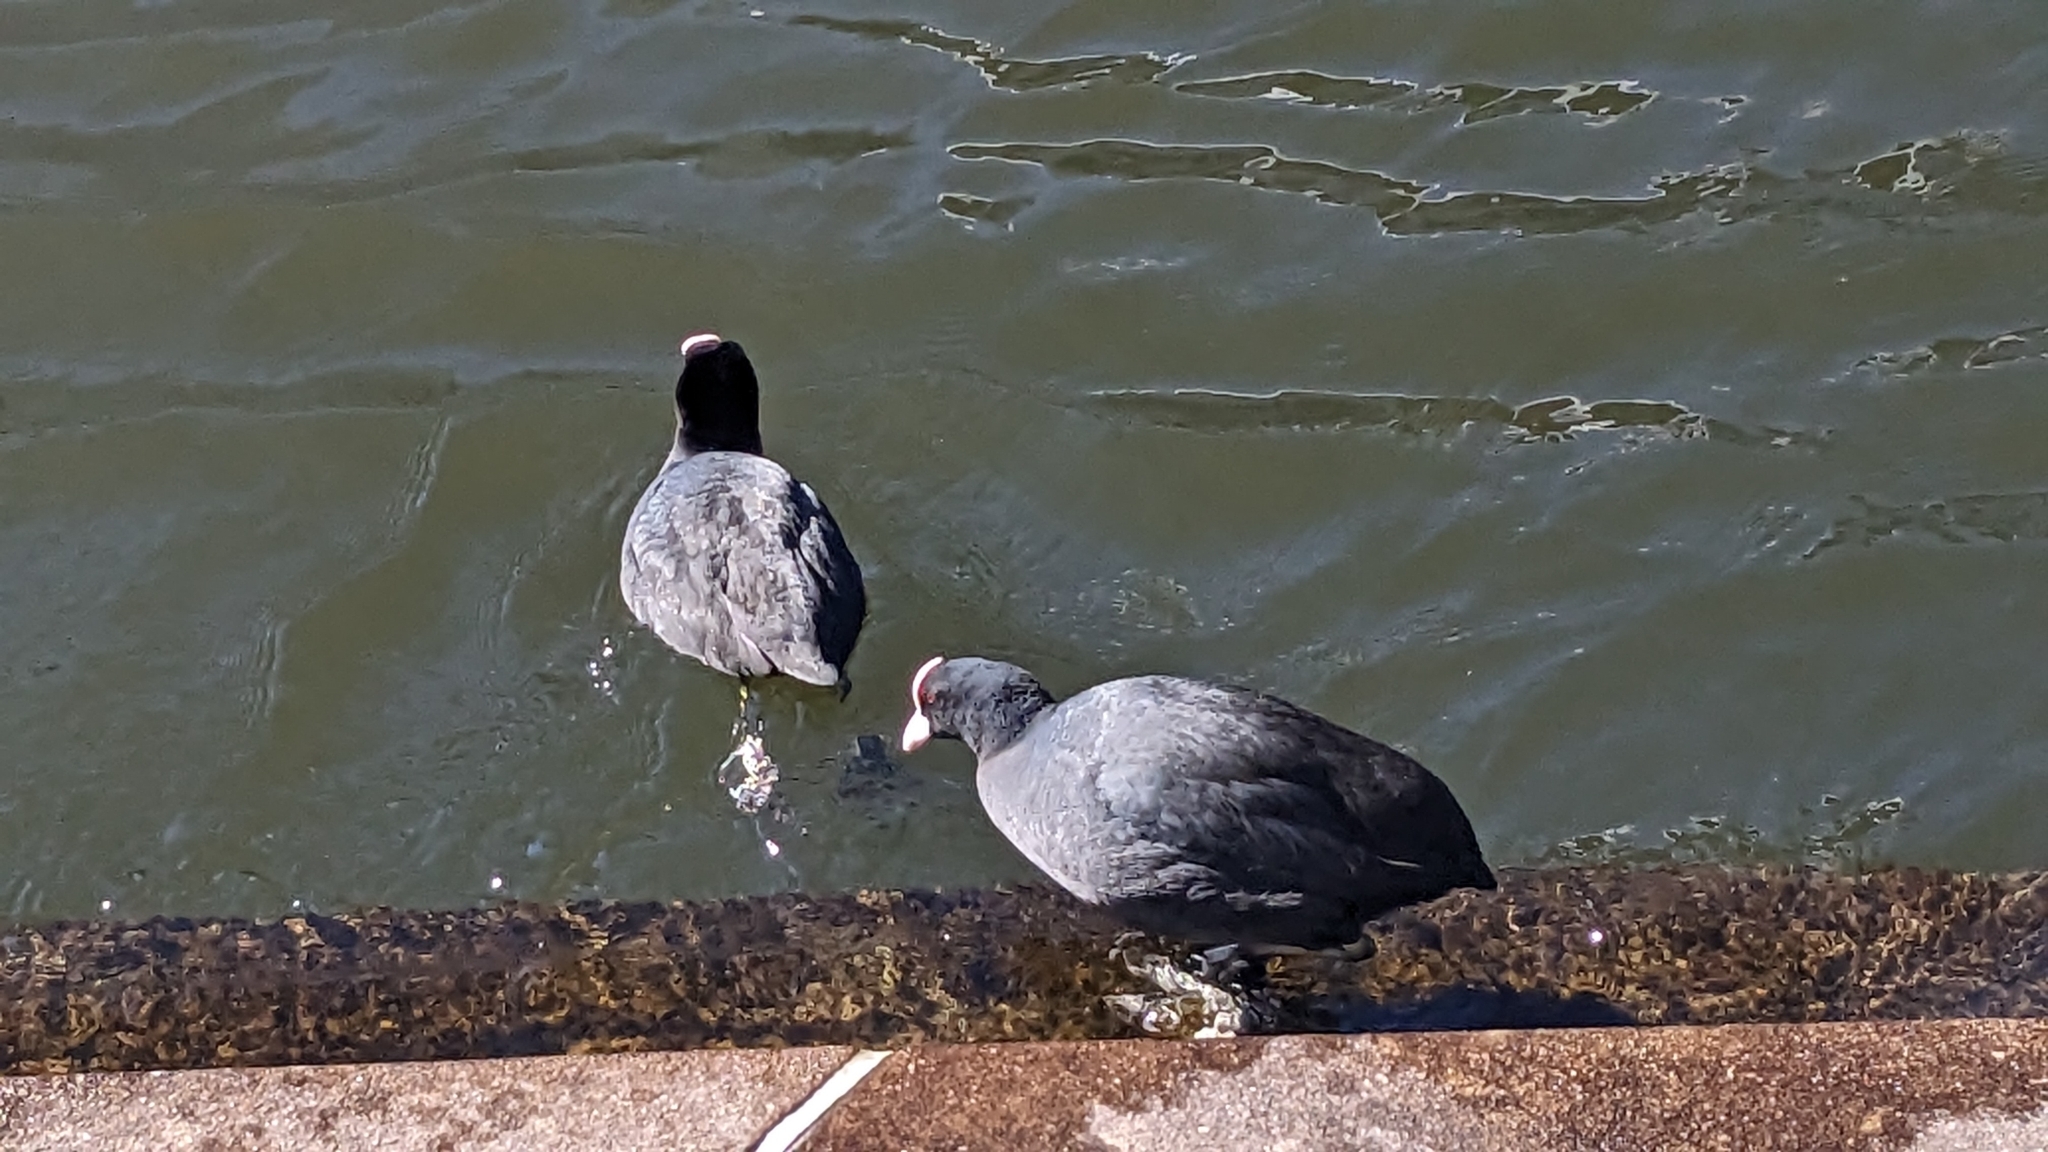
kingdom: Animalia
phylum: Chordata
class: Aves
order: Gruiformes
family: Rallidae
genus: Fulica
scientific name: Fulica atra
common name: Eurasian coot
